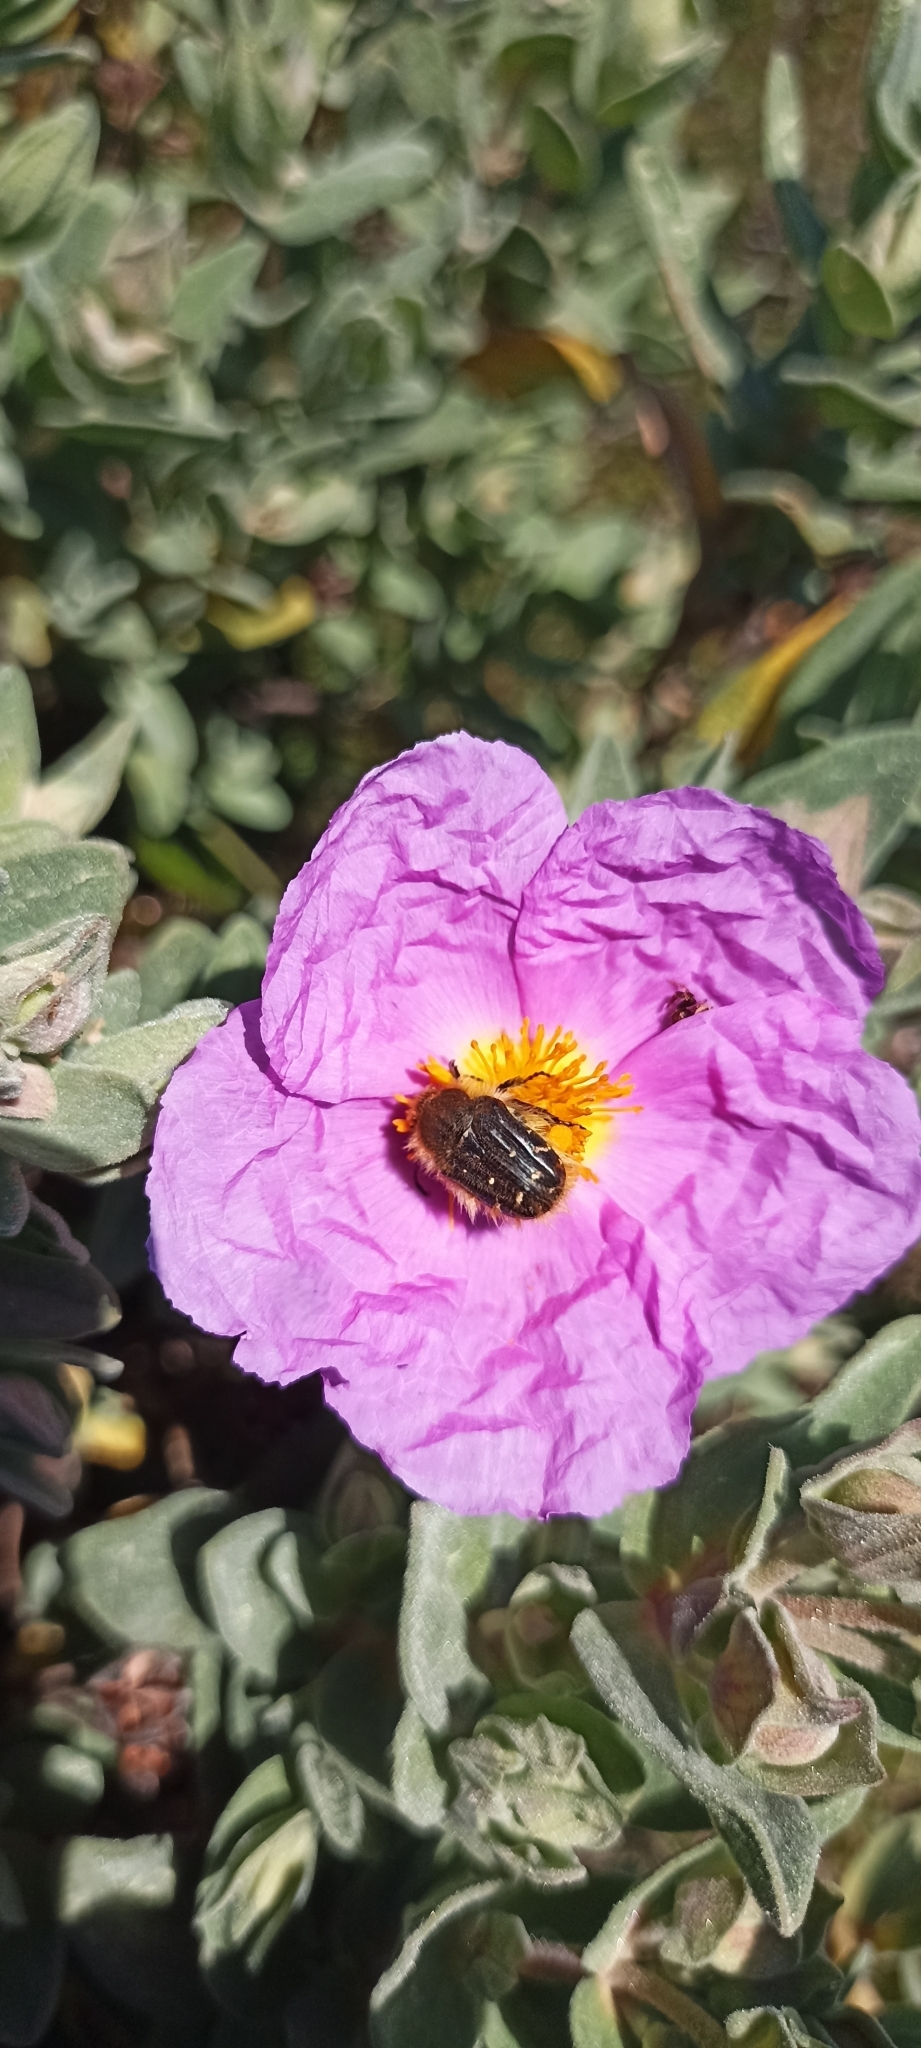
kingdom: Animalia
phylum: Arthropoda
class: Insecta
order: Coleoptera
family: Scarabaeidae
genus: Tropinota
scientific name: Tropinota squalida
